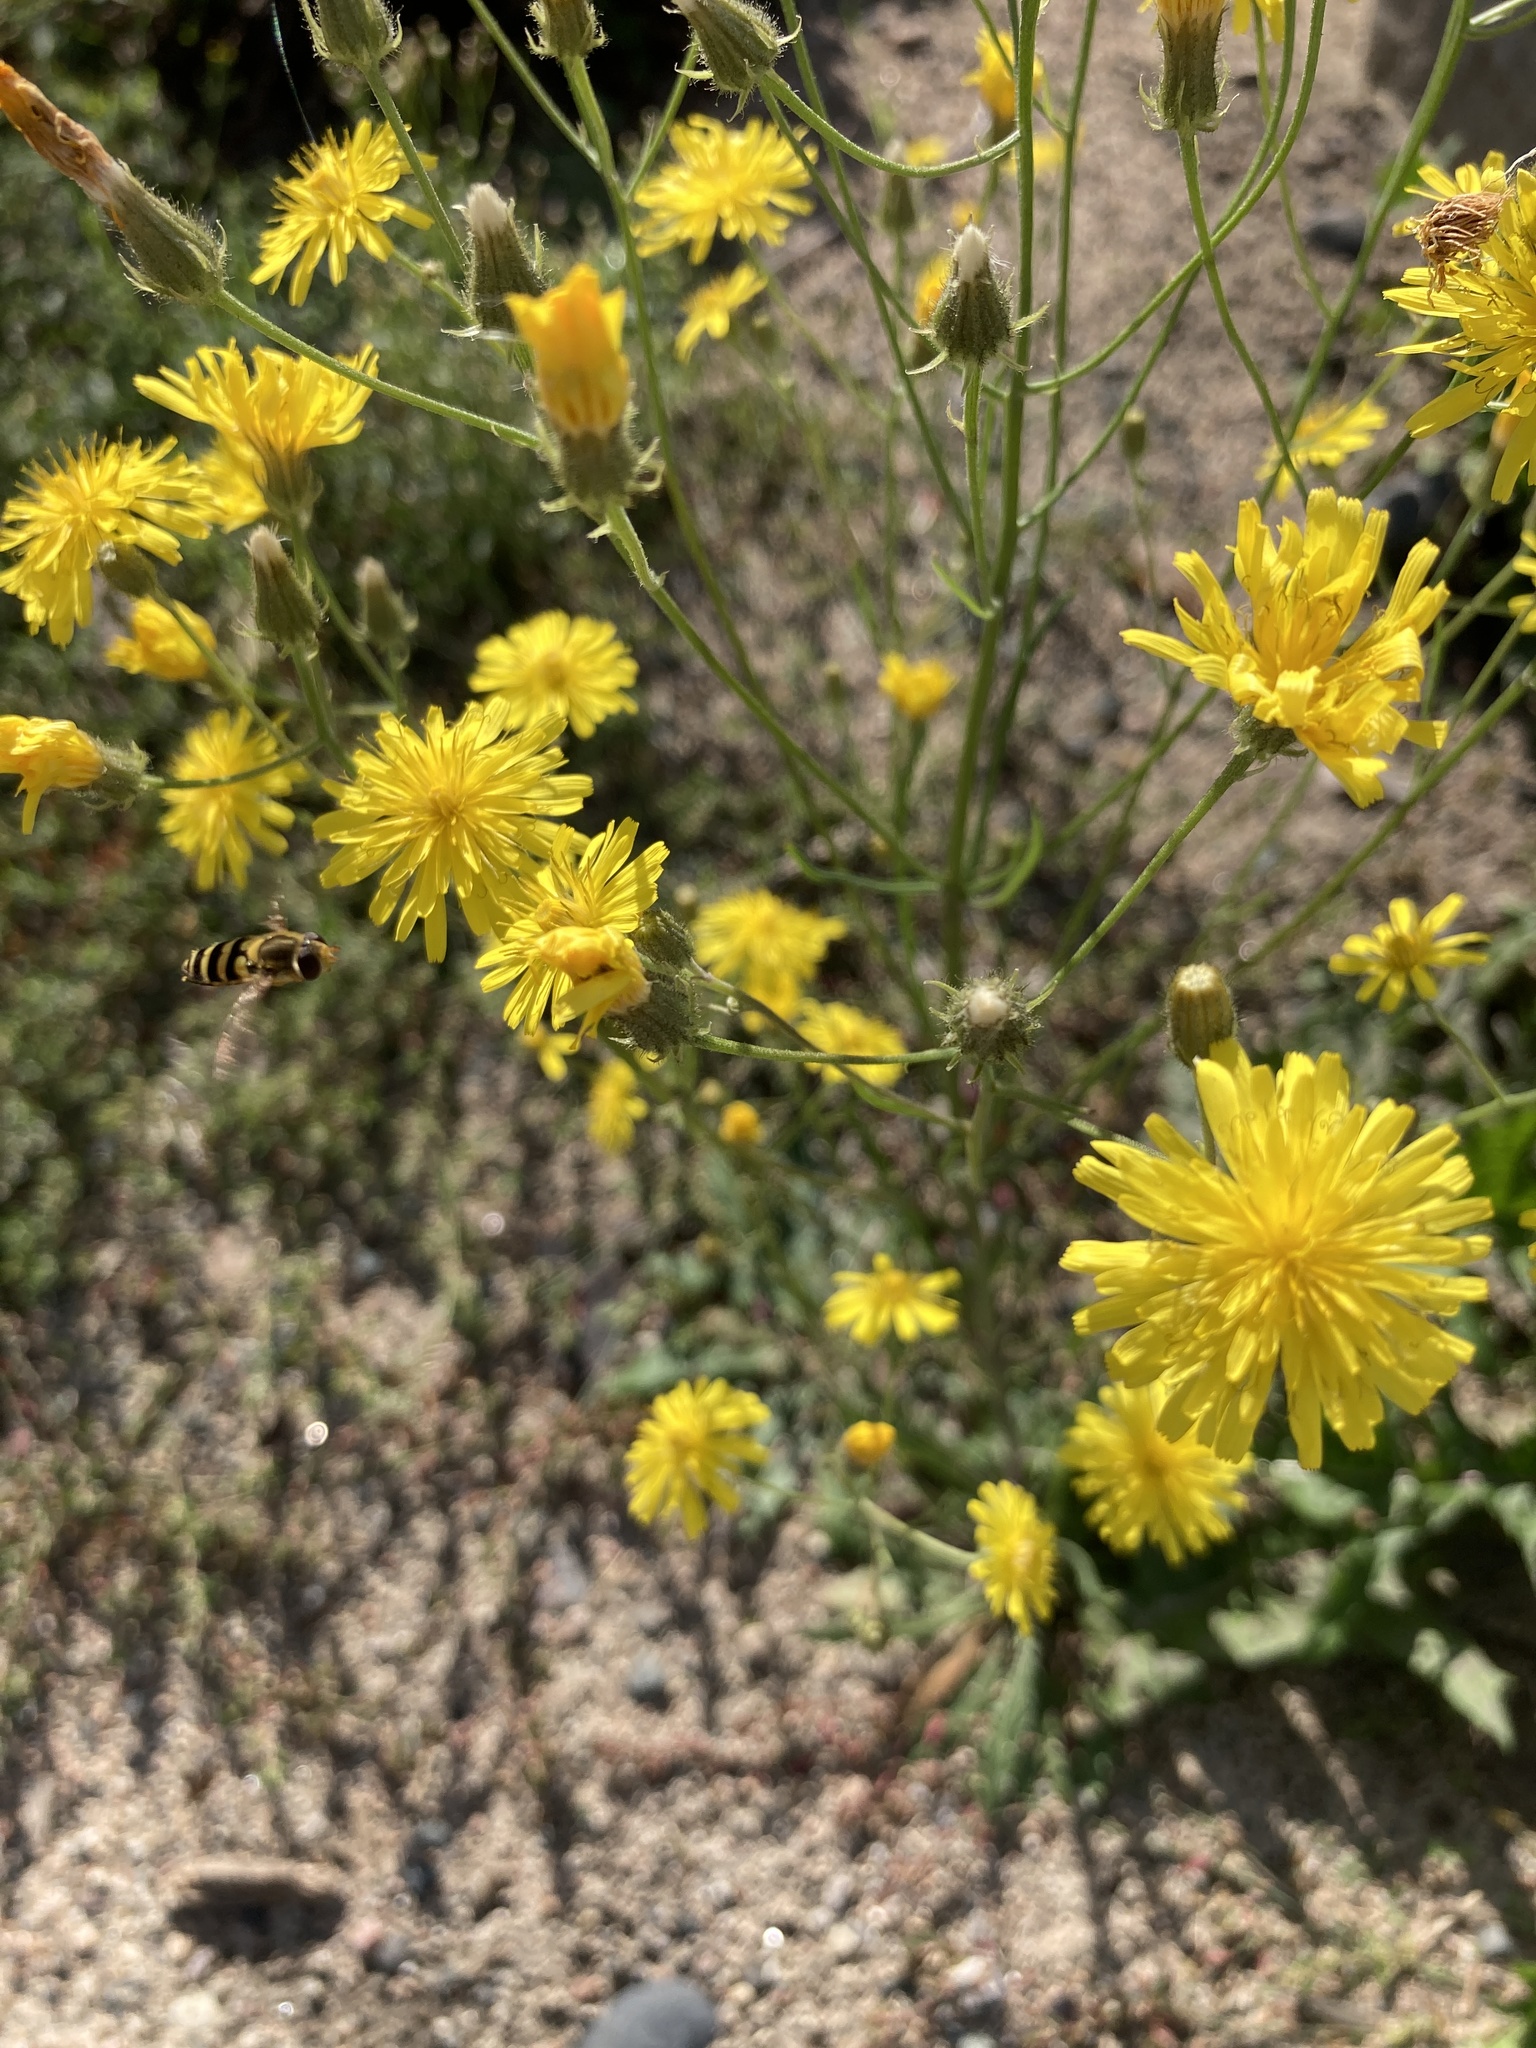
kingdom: Plantae
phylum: Tracheophyta
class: Magnoliopsida
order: Asterales
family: Asteraceae
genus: Crepis
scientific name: Crepis tectorum
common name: Narrow-leaved hawk's-beard
